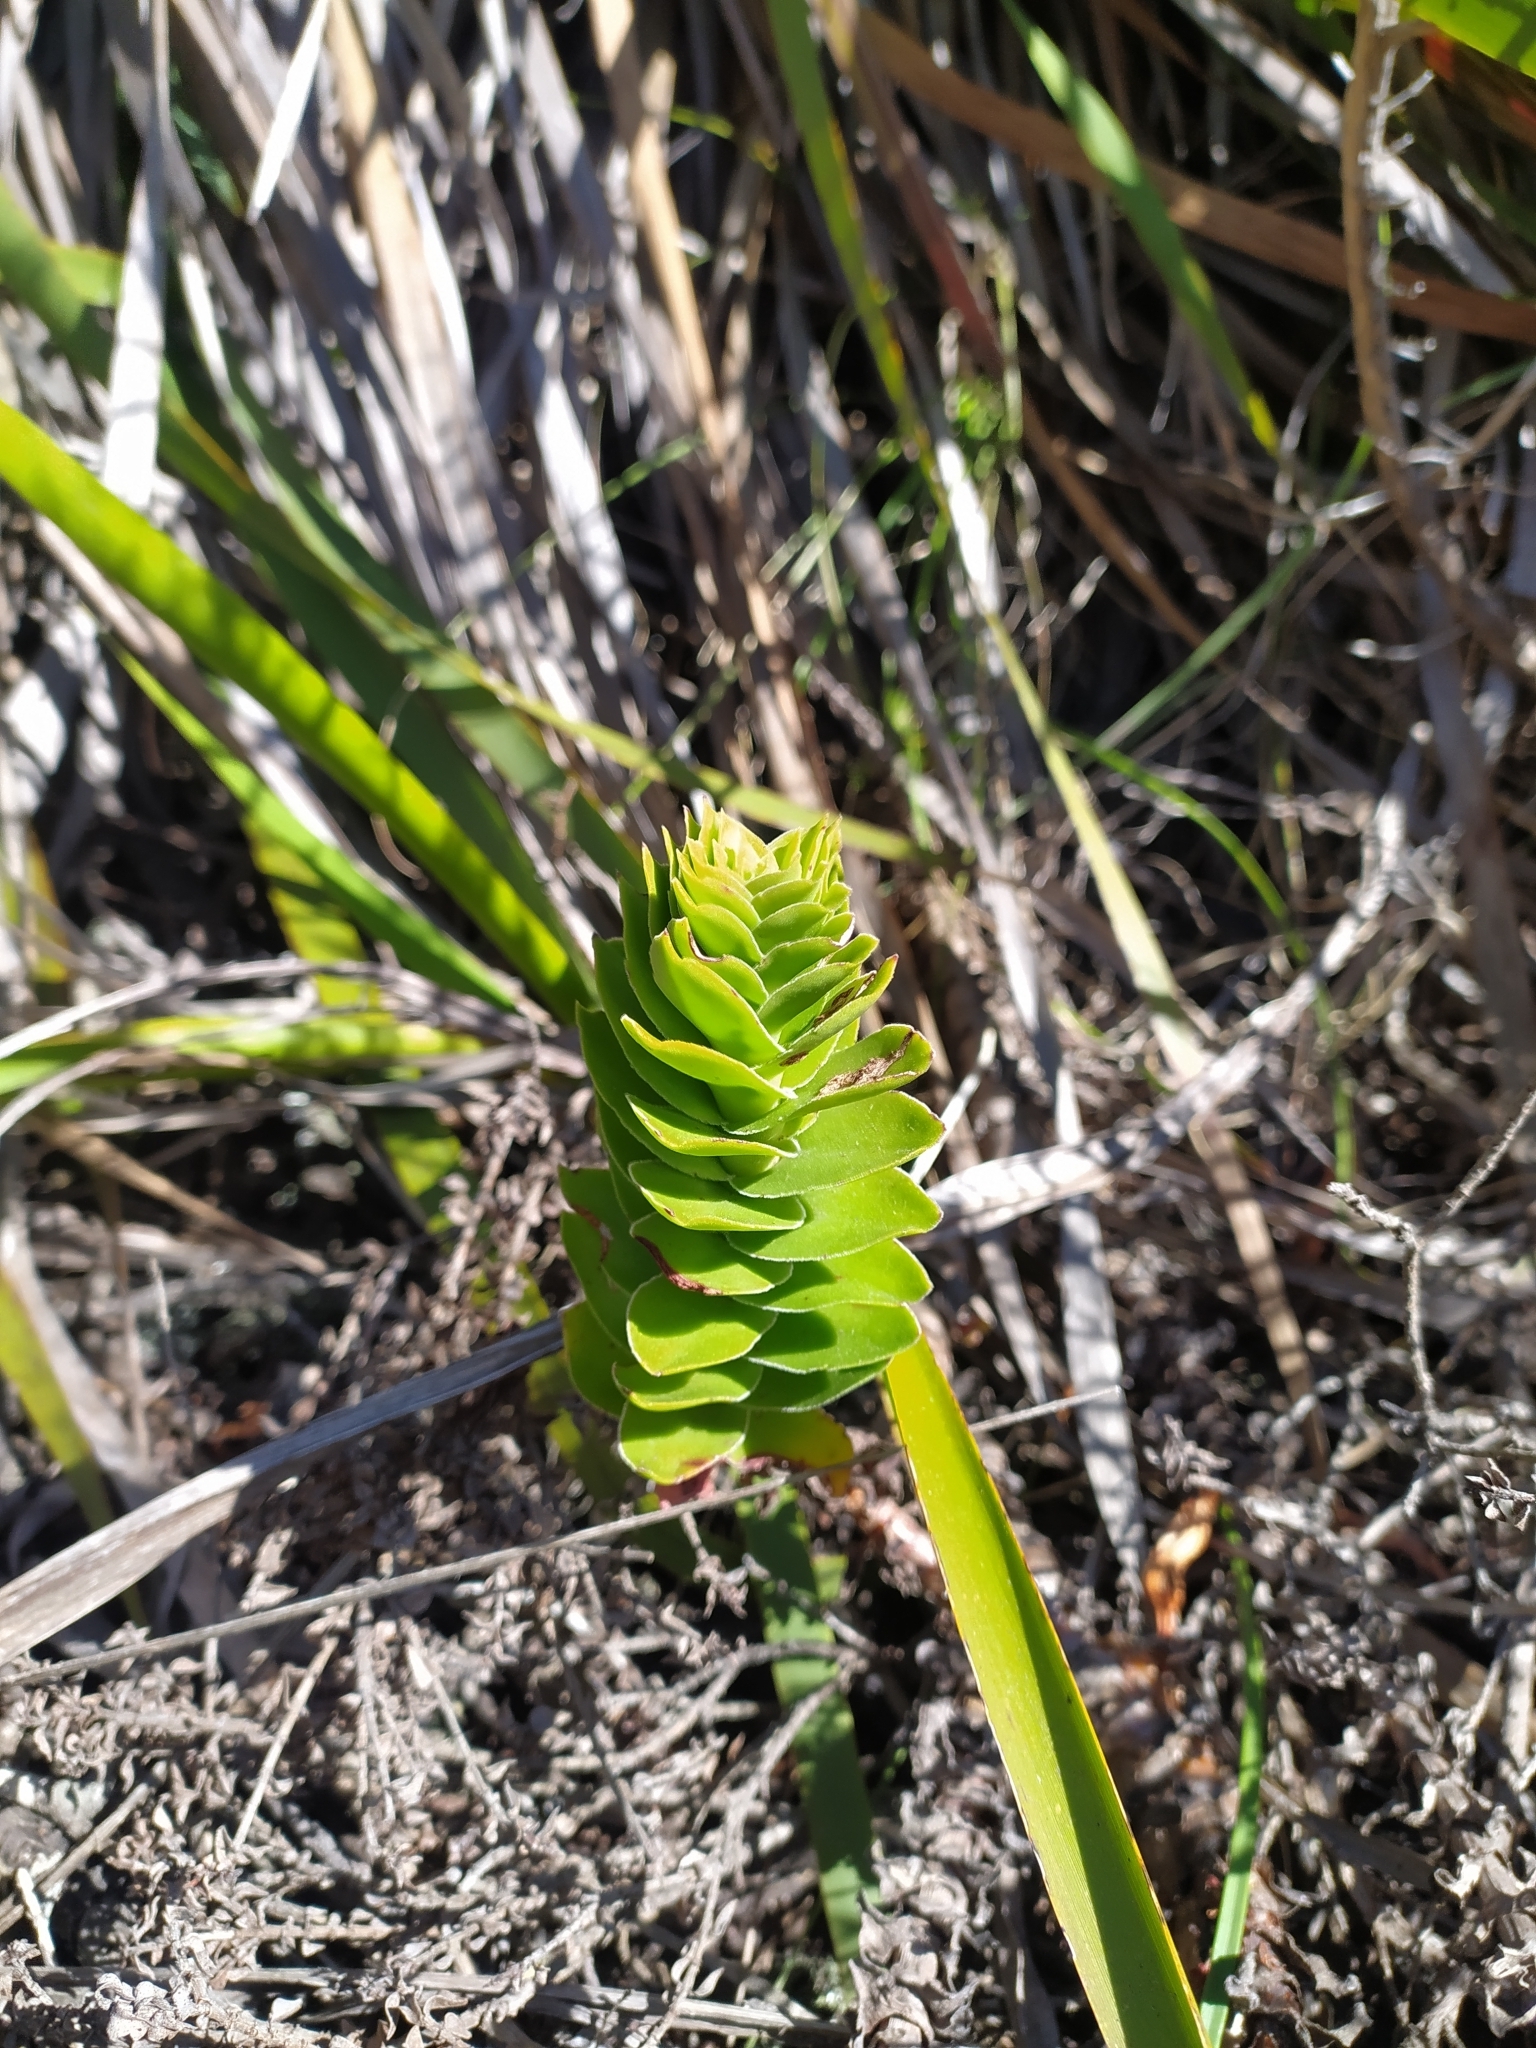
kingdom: Plantae
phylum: Tracheophyta
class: Magnoliopsida
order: Saxifragales
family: Crassulaceae
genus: Crassula
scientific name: Crassula coccinea
